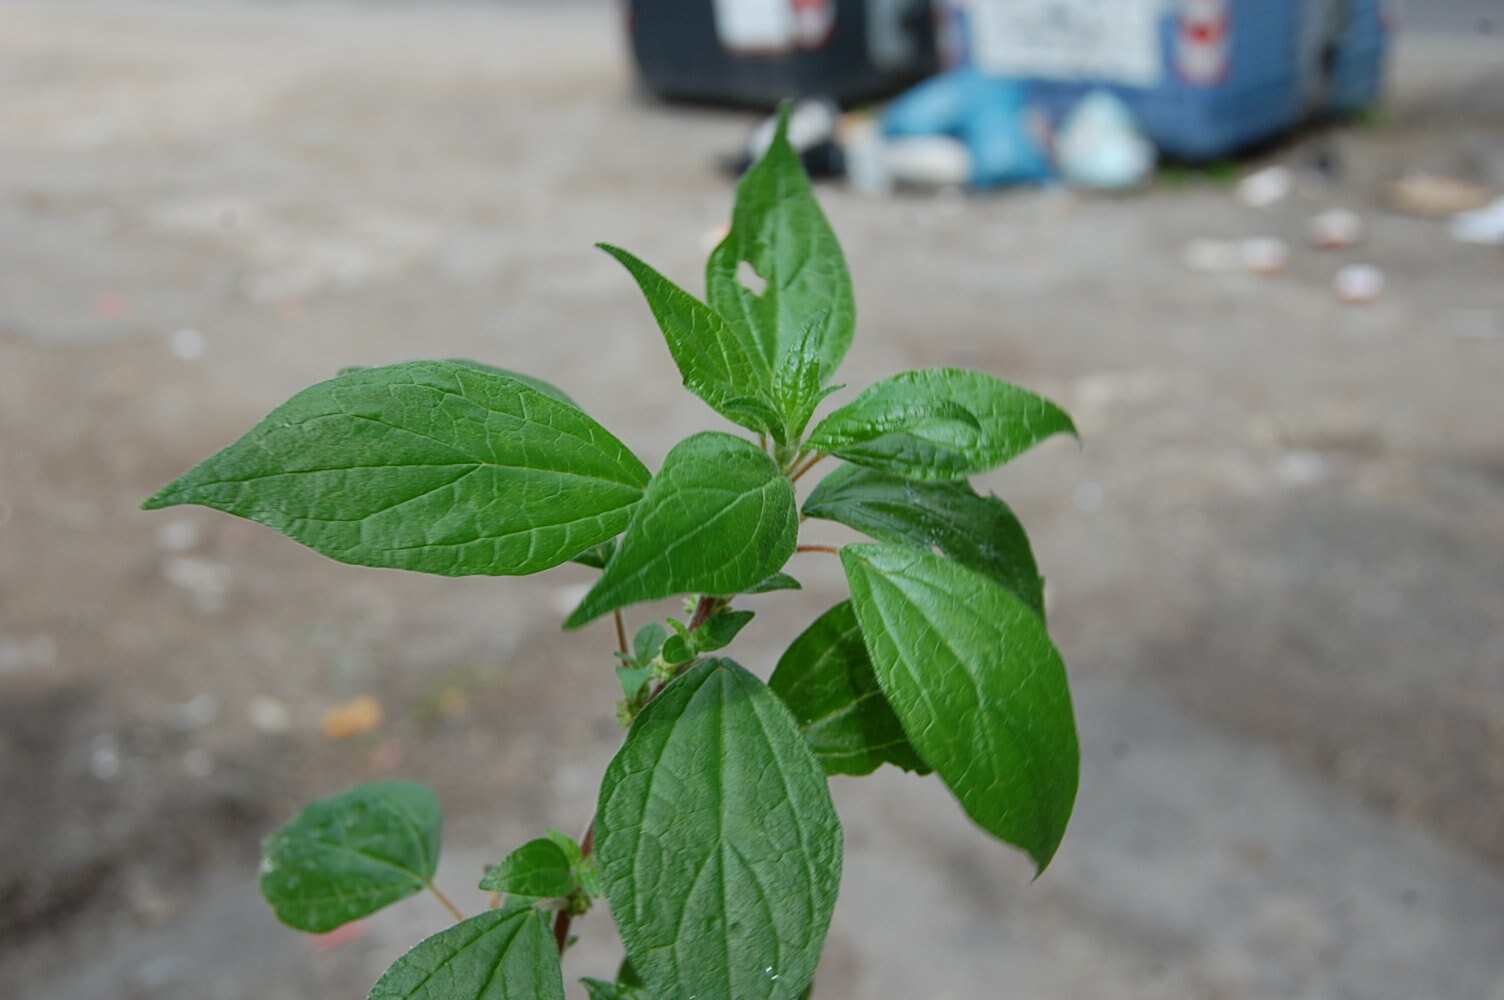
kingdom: Plantae
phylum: Tracheophyta
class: Magnoliopsida
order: Rosales
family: Urticaceae
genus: Parietaria
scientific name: Parietaria judaica
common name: Pellitory-of-the-wall
